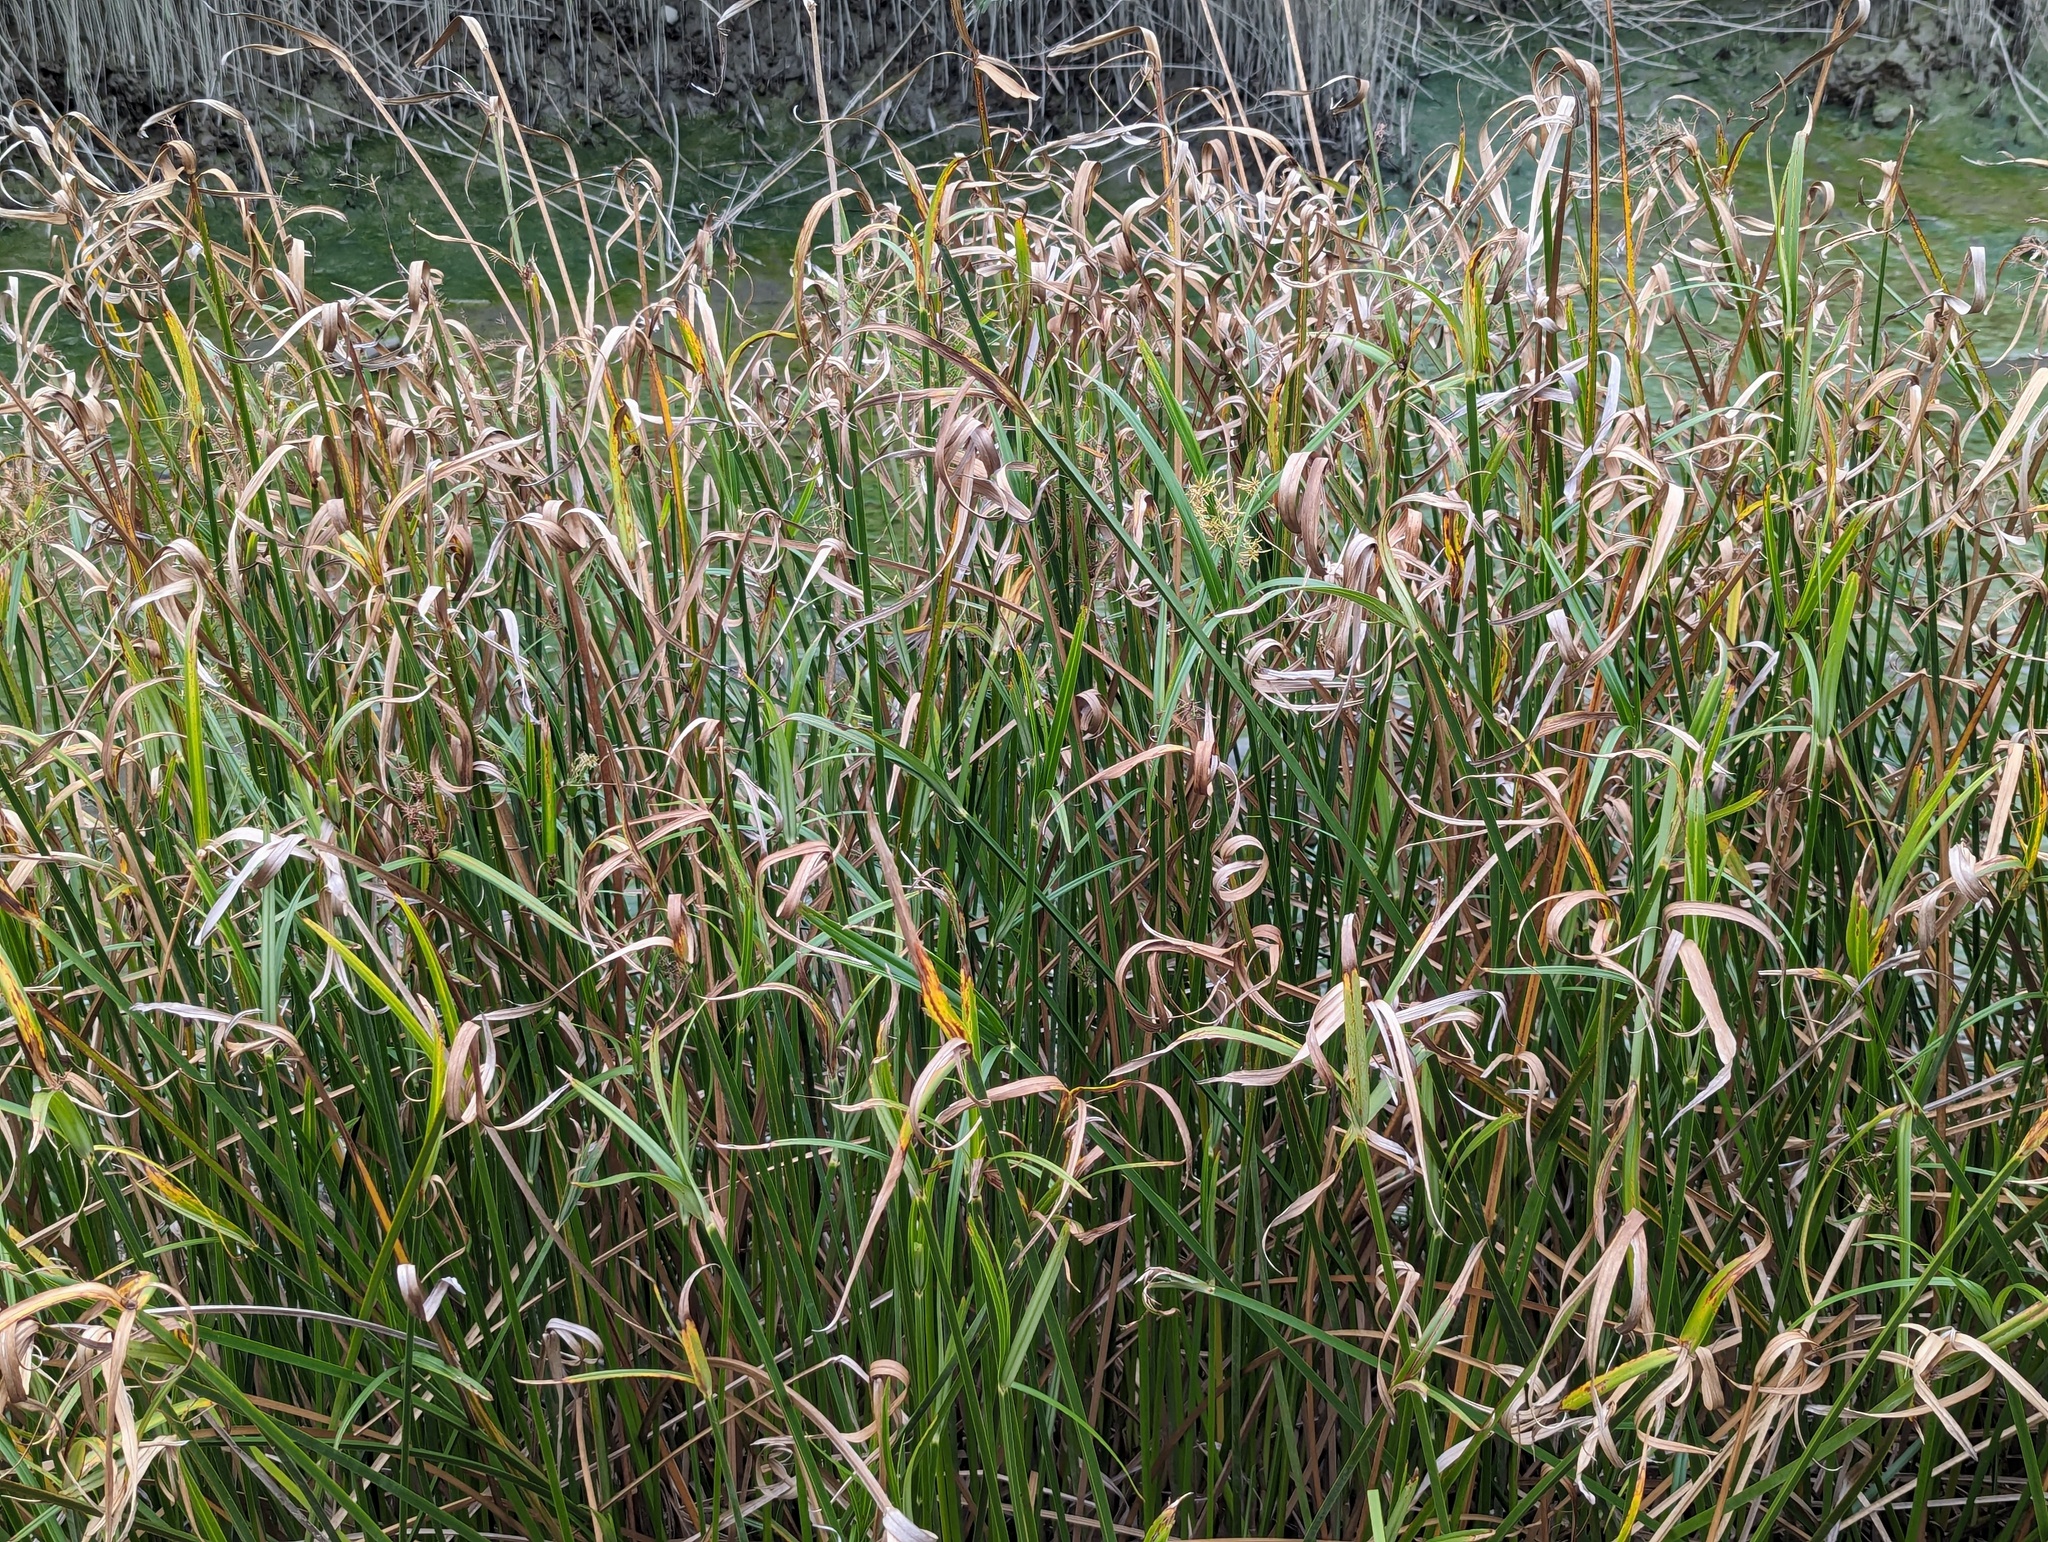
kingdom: Plantae
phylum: Tracheophyta
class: Liliopsida
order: Poales
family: Cyperaceae
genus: Cyperus
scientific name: Cyperus malaccensis
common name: Shichito matgrass
